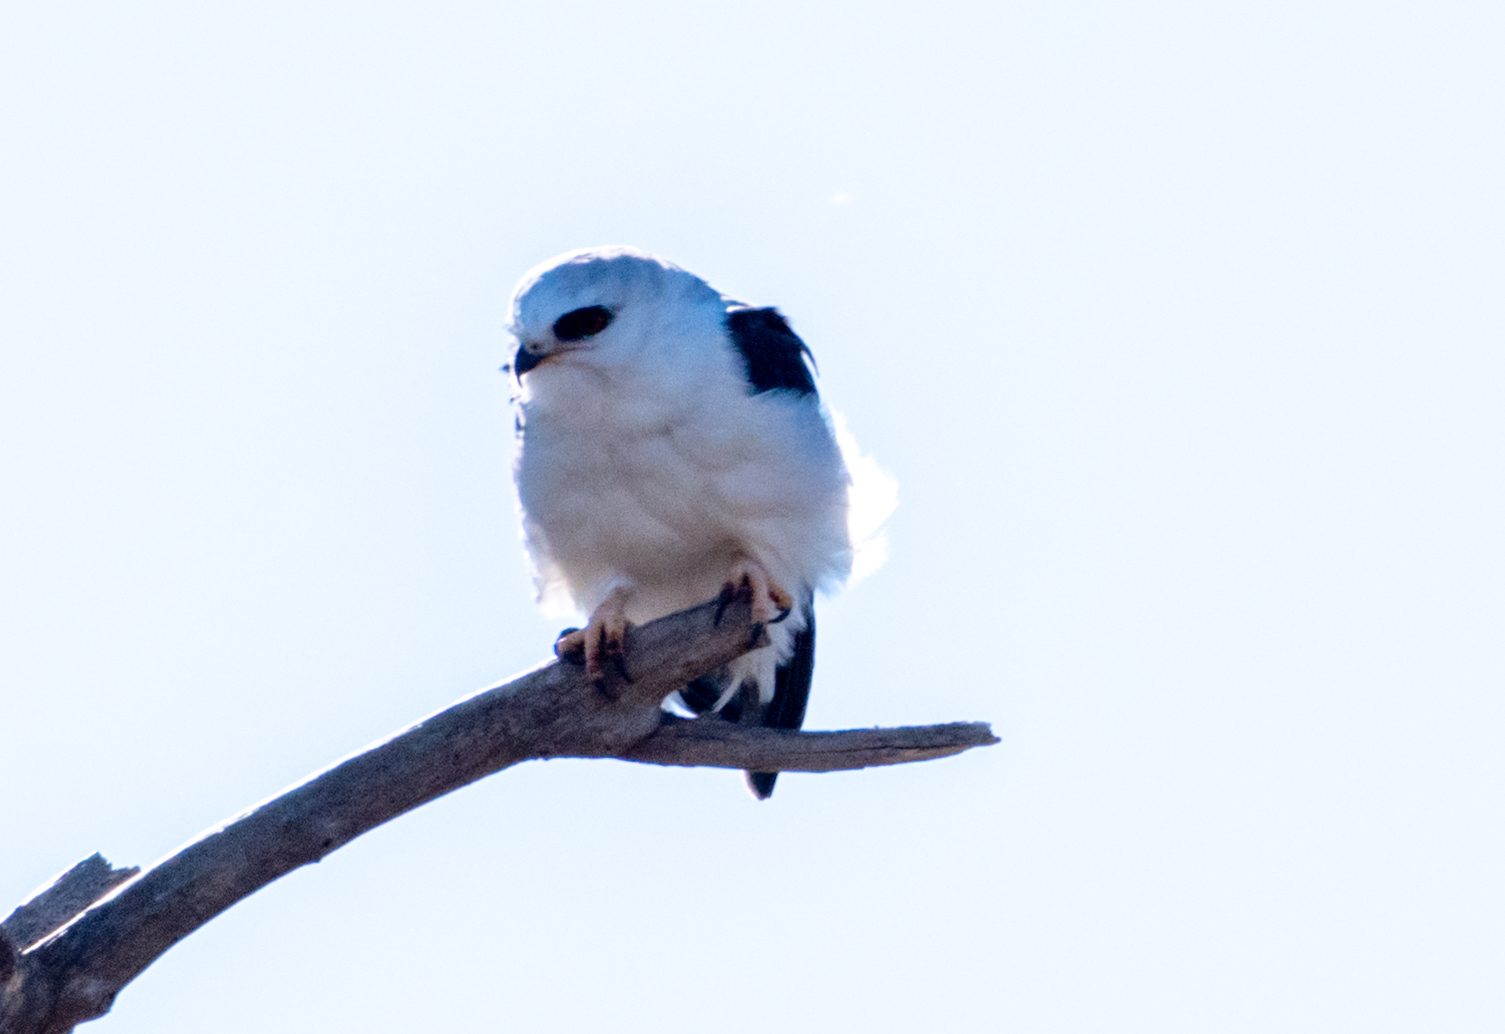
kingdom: Animalia
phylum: Chordata
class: Aves
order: Accipitriformes
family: Accipitridae
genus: Elanus
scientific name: Elanus leucurus
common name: White-tailed kite
